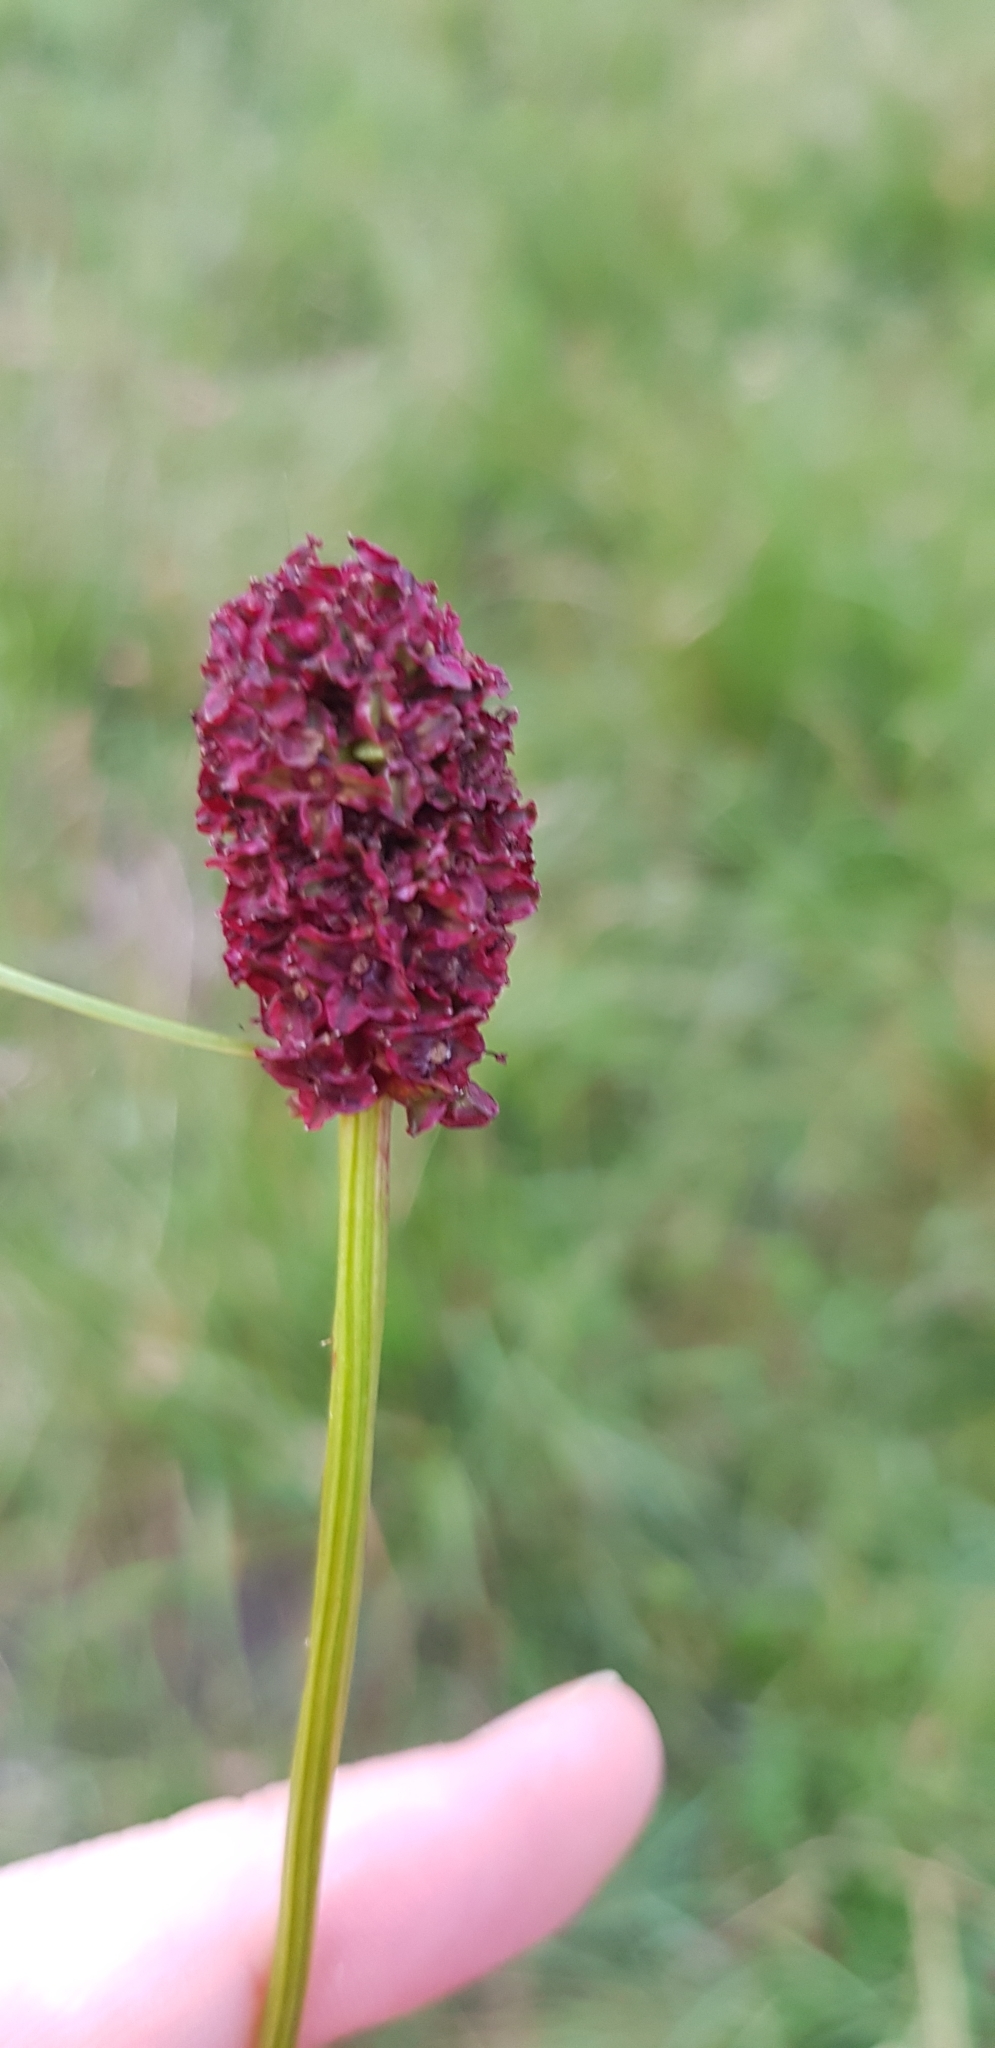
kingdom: Plantae
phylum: Tracheophyta
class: Magnoliopsida
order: Rosales
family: Rosaceae
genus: Sanguisorba
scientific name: Sanguisorba officinalis
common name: Great burnet
